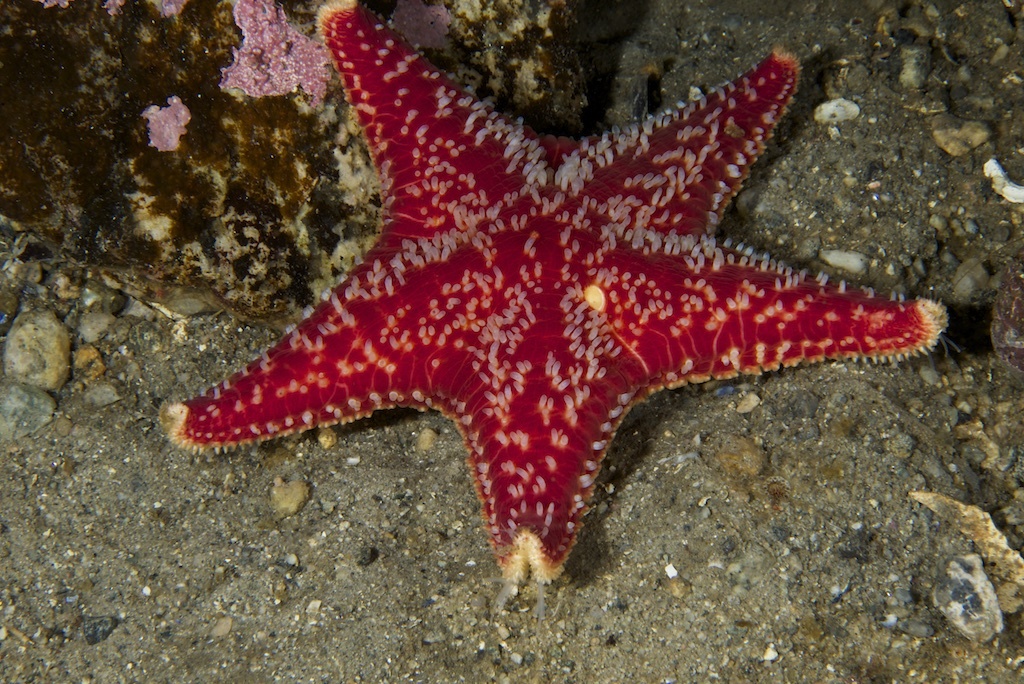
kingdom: Animalia
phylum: Echinodermata
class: Asteroidea
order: Valvatida
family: Poraniidae
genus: Porania
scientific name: Porania pulvillus
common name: Red cushion stat
